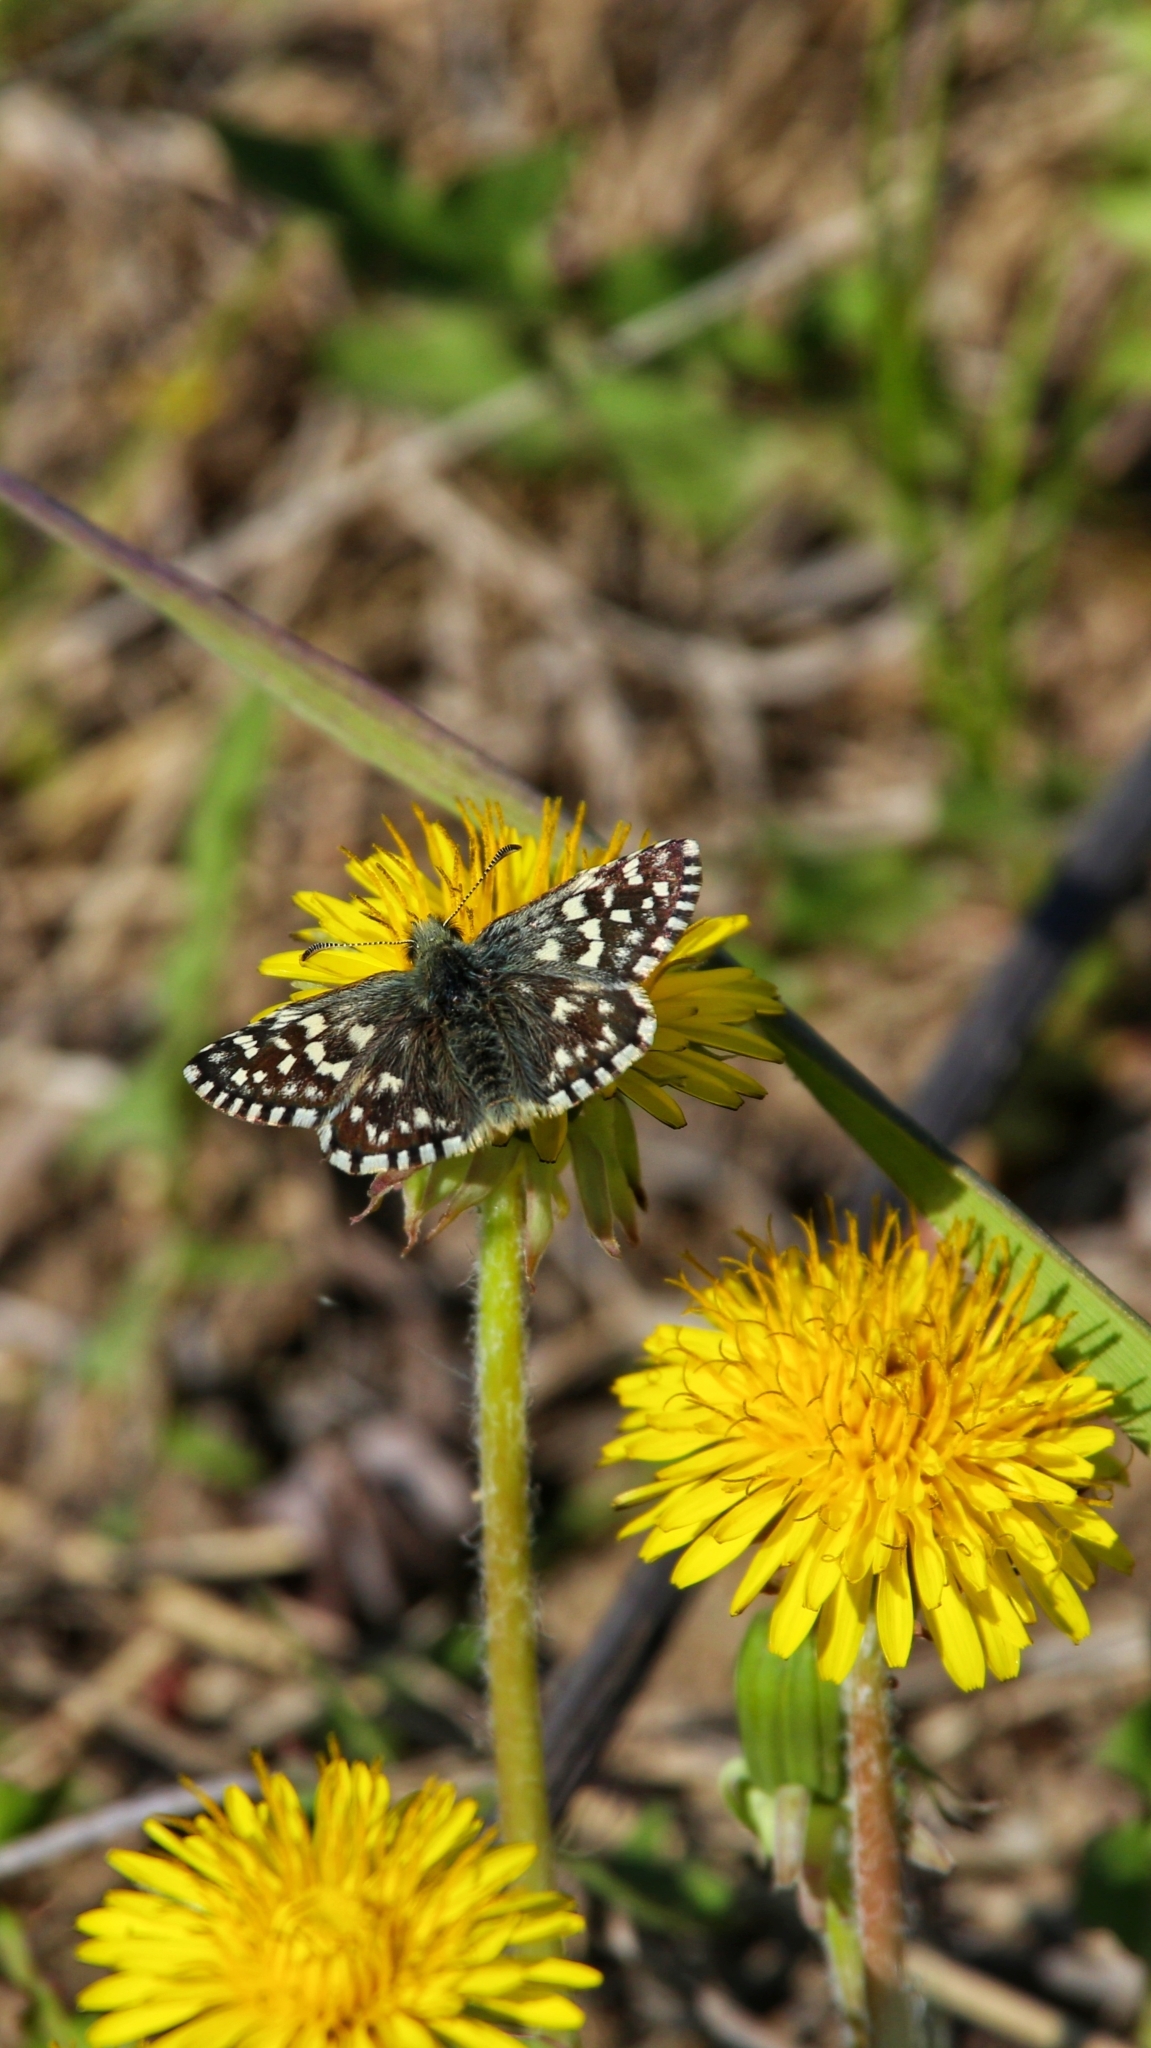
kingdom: Animalia
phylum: Arthropoda
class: Insecta
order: Lepidoptera
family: Hesperiidae
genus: Pyrgus
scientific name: Pyrgus malvae
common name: Grizzled skipper
